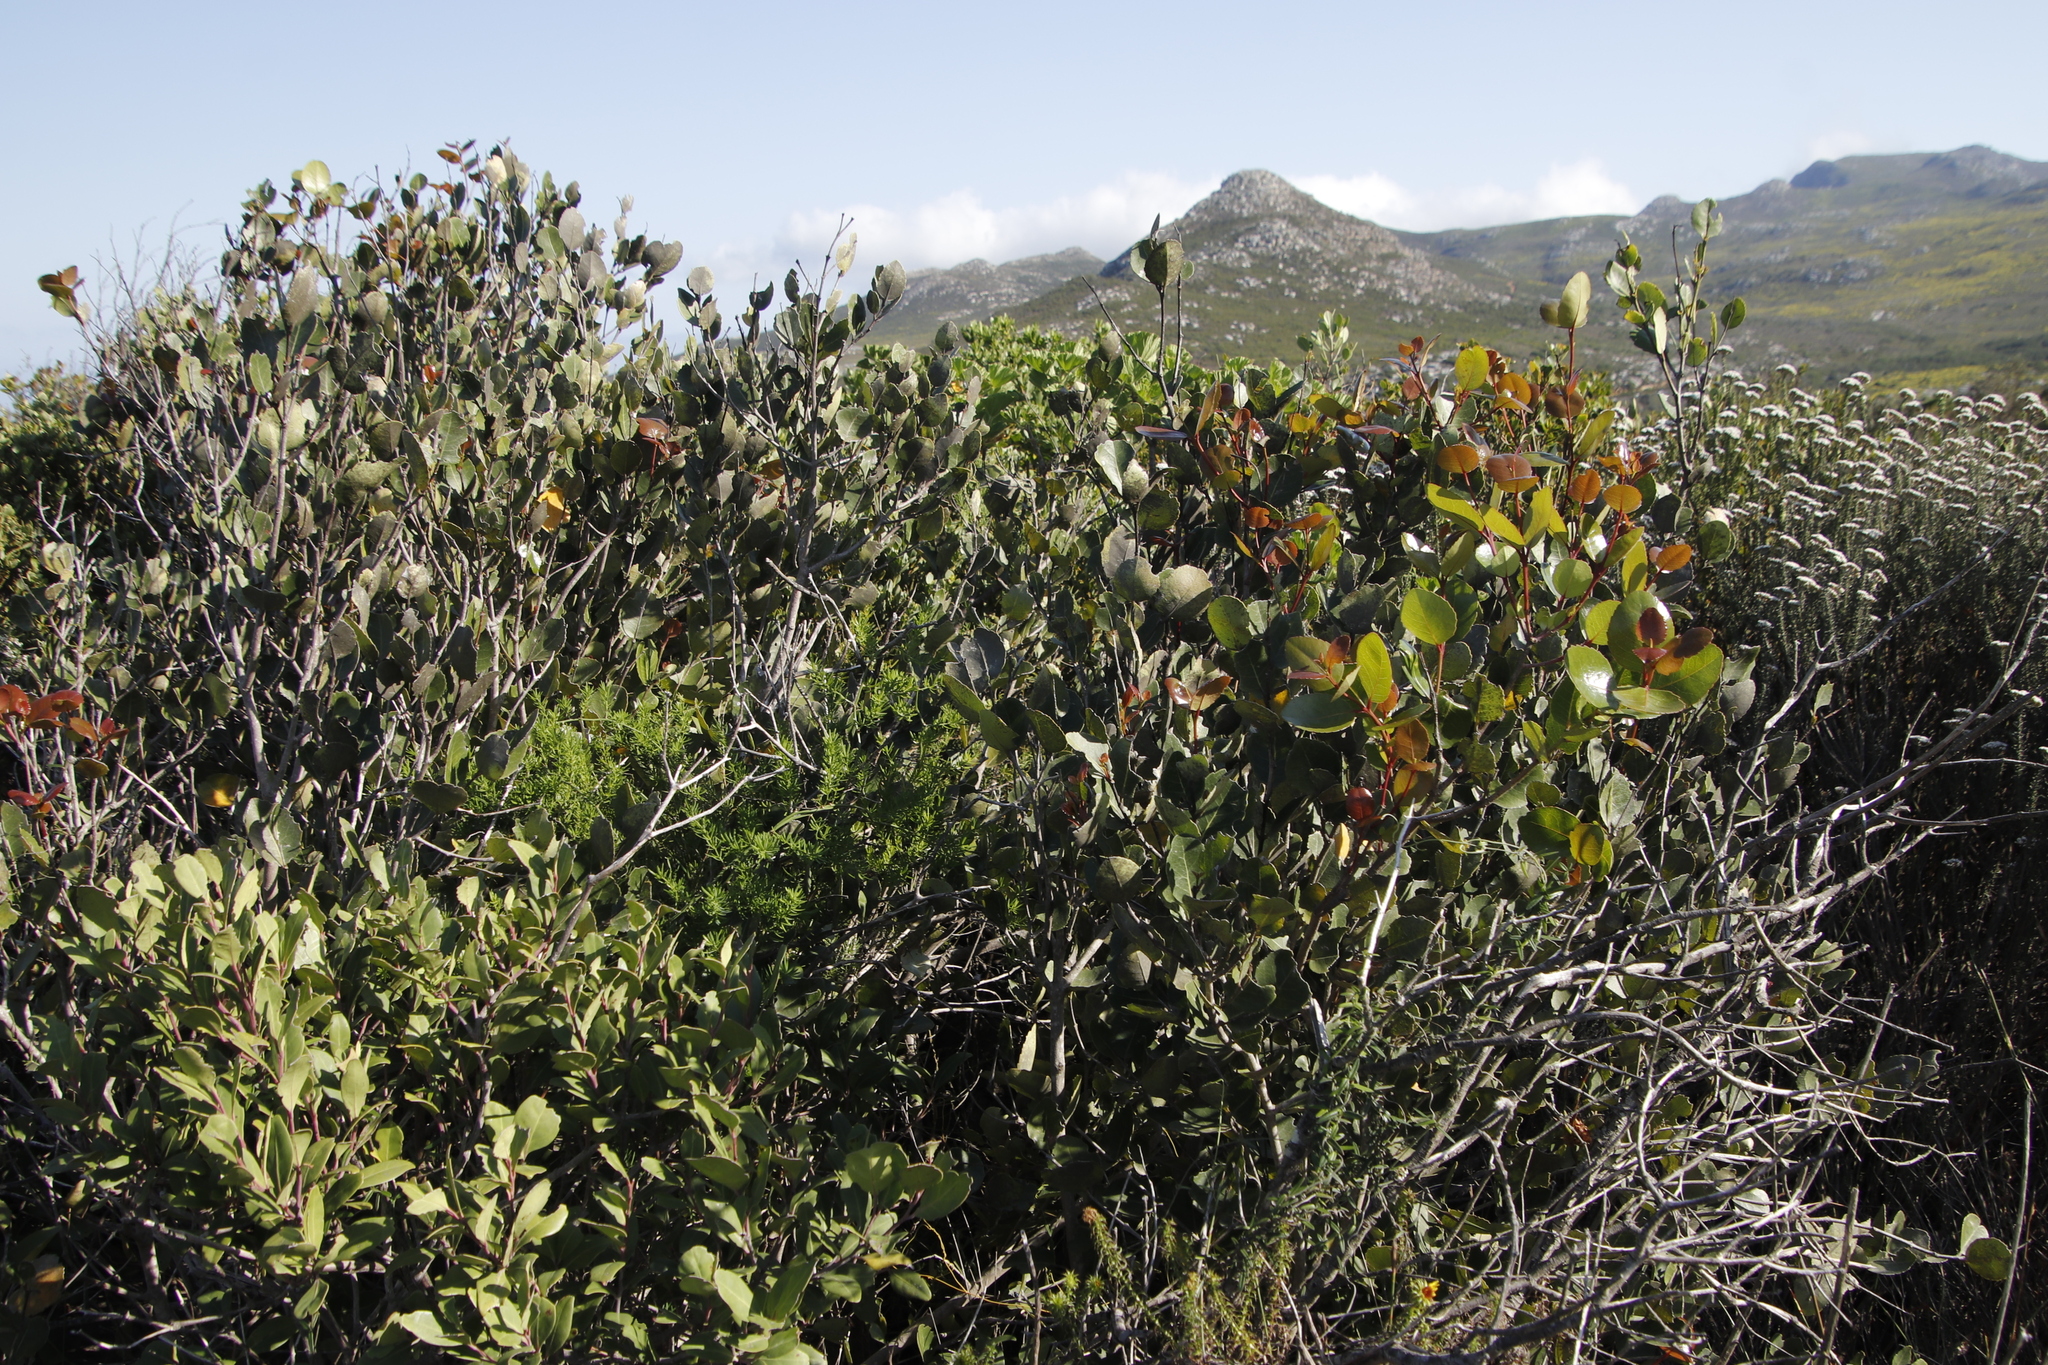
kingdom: Plantae
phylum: Tracheophyta
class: Magnoliopsida
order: Celastrales
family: Celastraceae
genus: Cassine
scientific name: Cassine peragua
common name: Cape saffron
